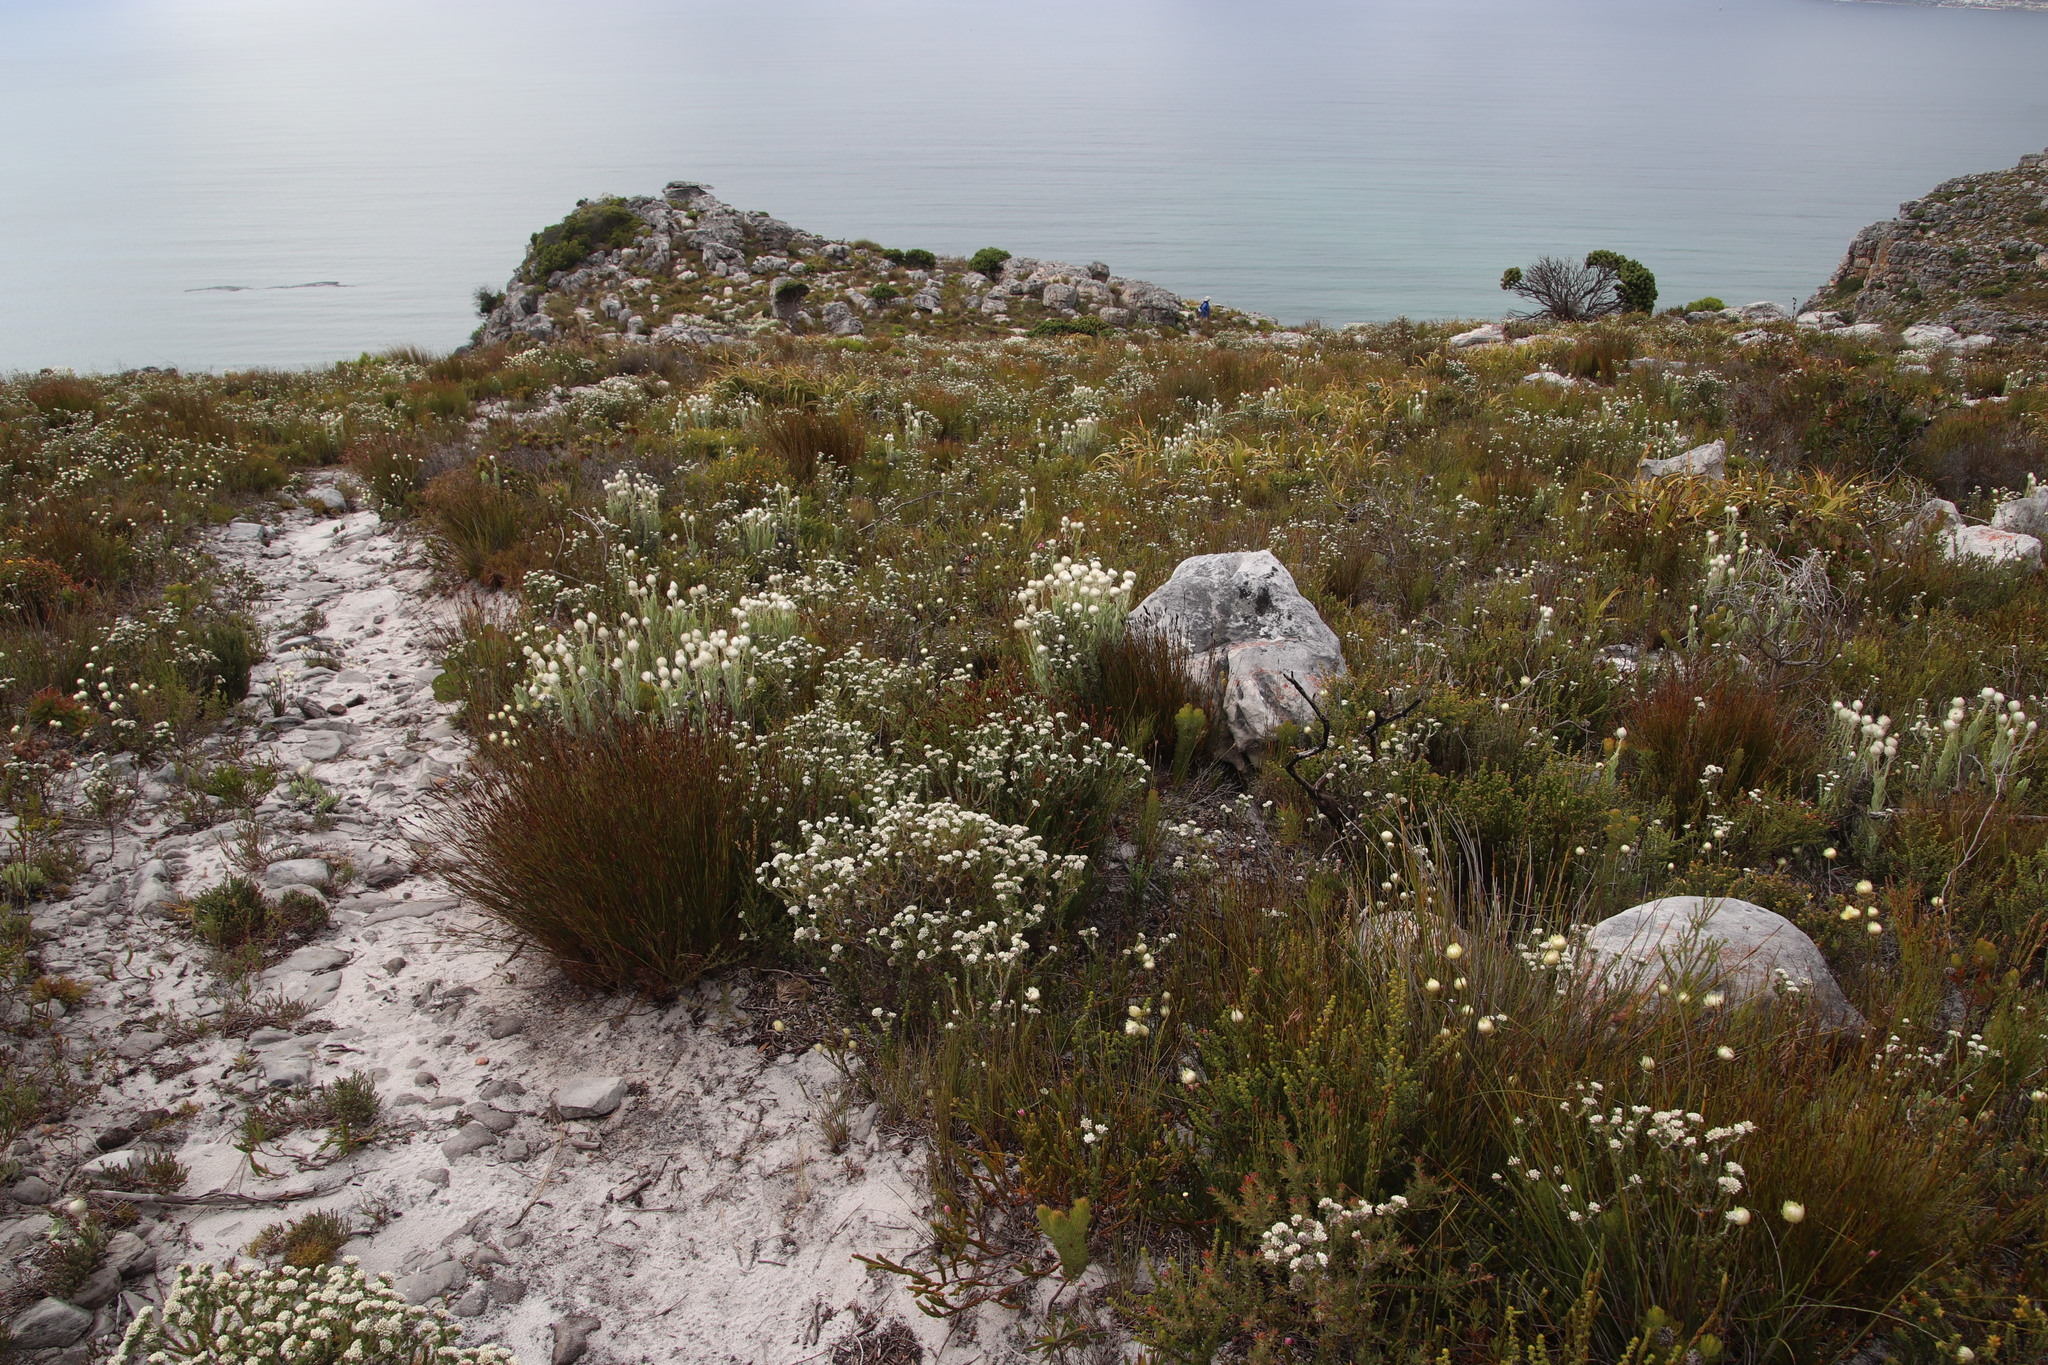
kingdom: Plantae
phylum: Tracheophyta
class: Magnoliopsida
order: Asterales
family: Asteraceae
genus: Metalasia
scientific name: Metalasia compacta
